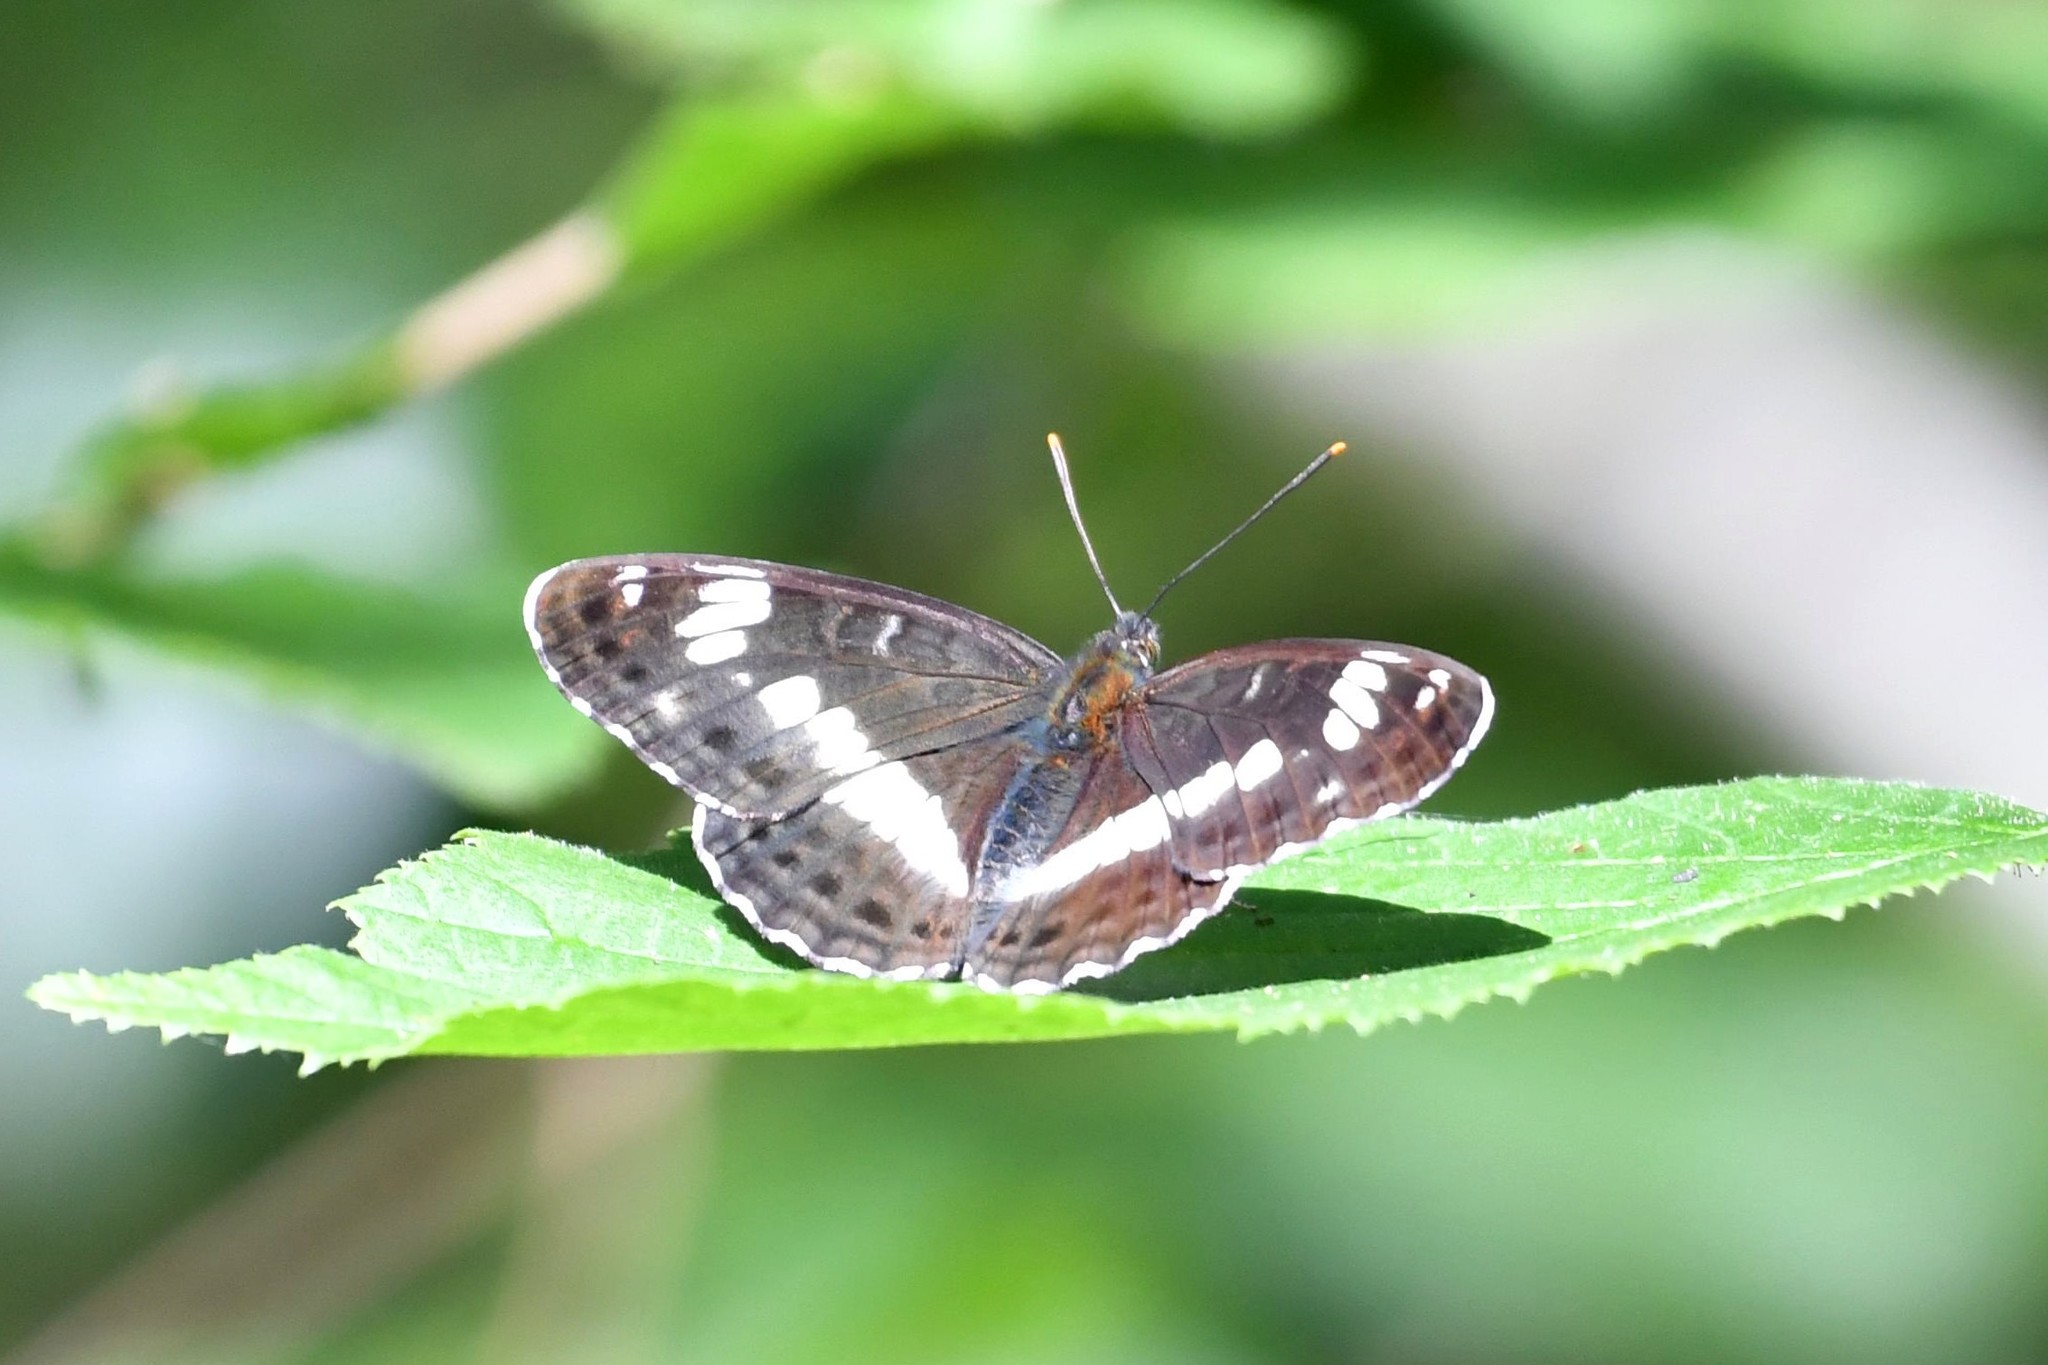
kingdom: Animalia
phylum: Arthropoda
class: Insecta
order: Lepidoptera
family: Nymphalidae
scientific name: Nymphalidae
